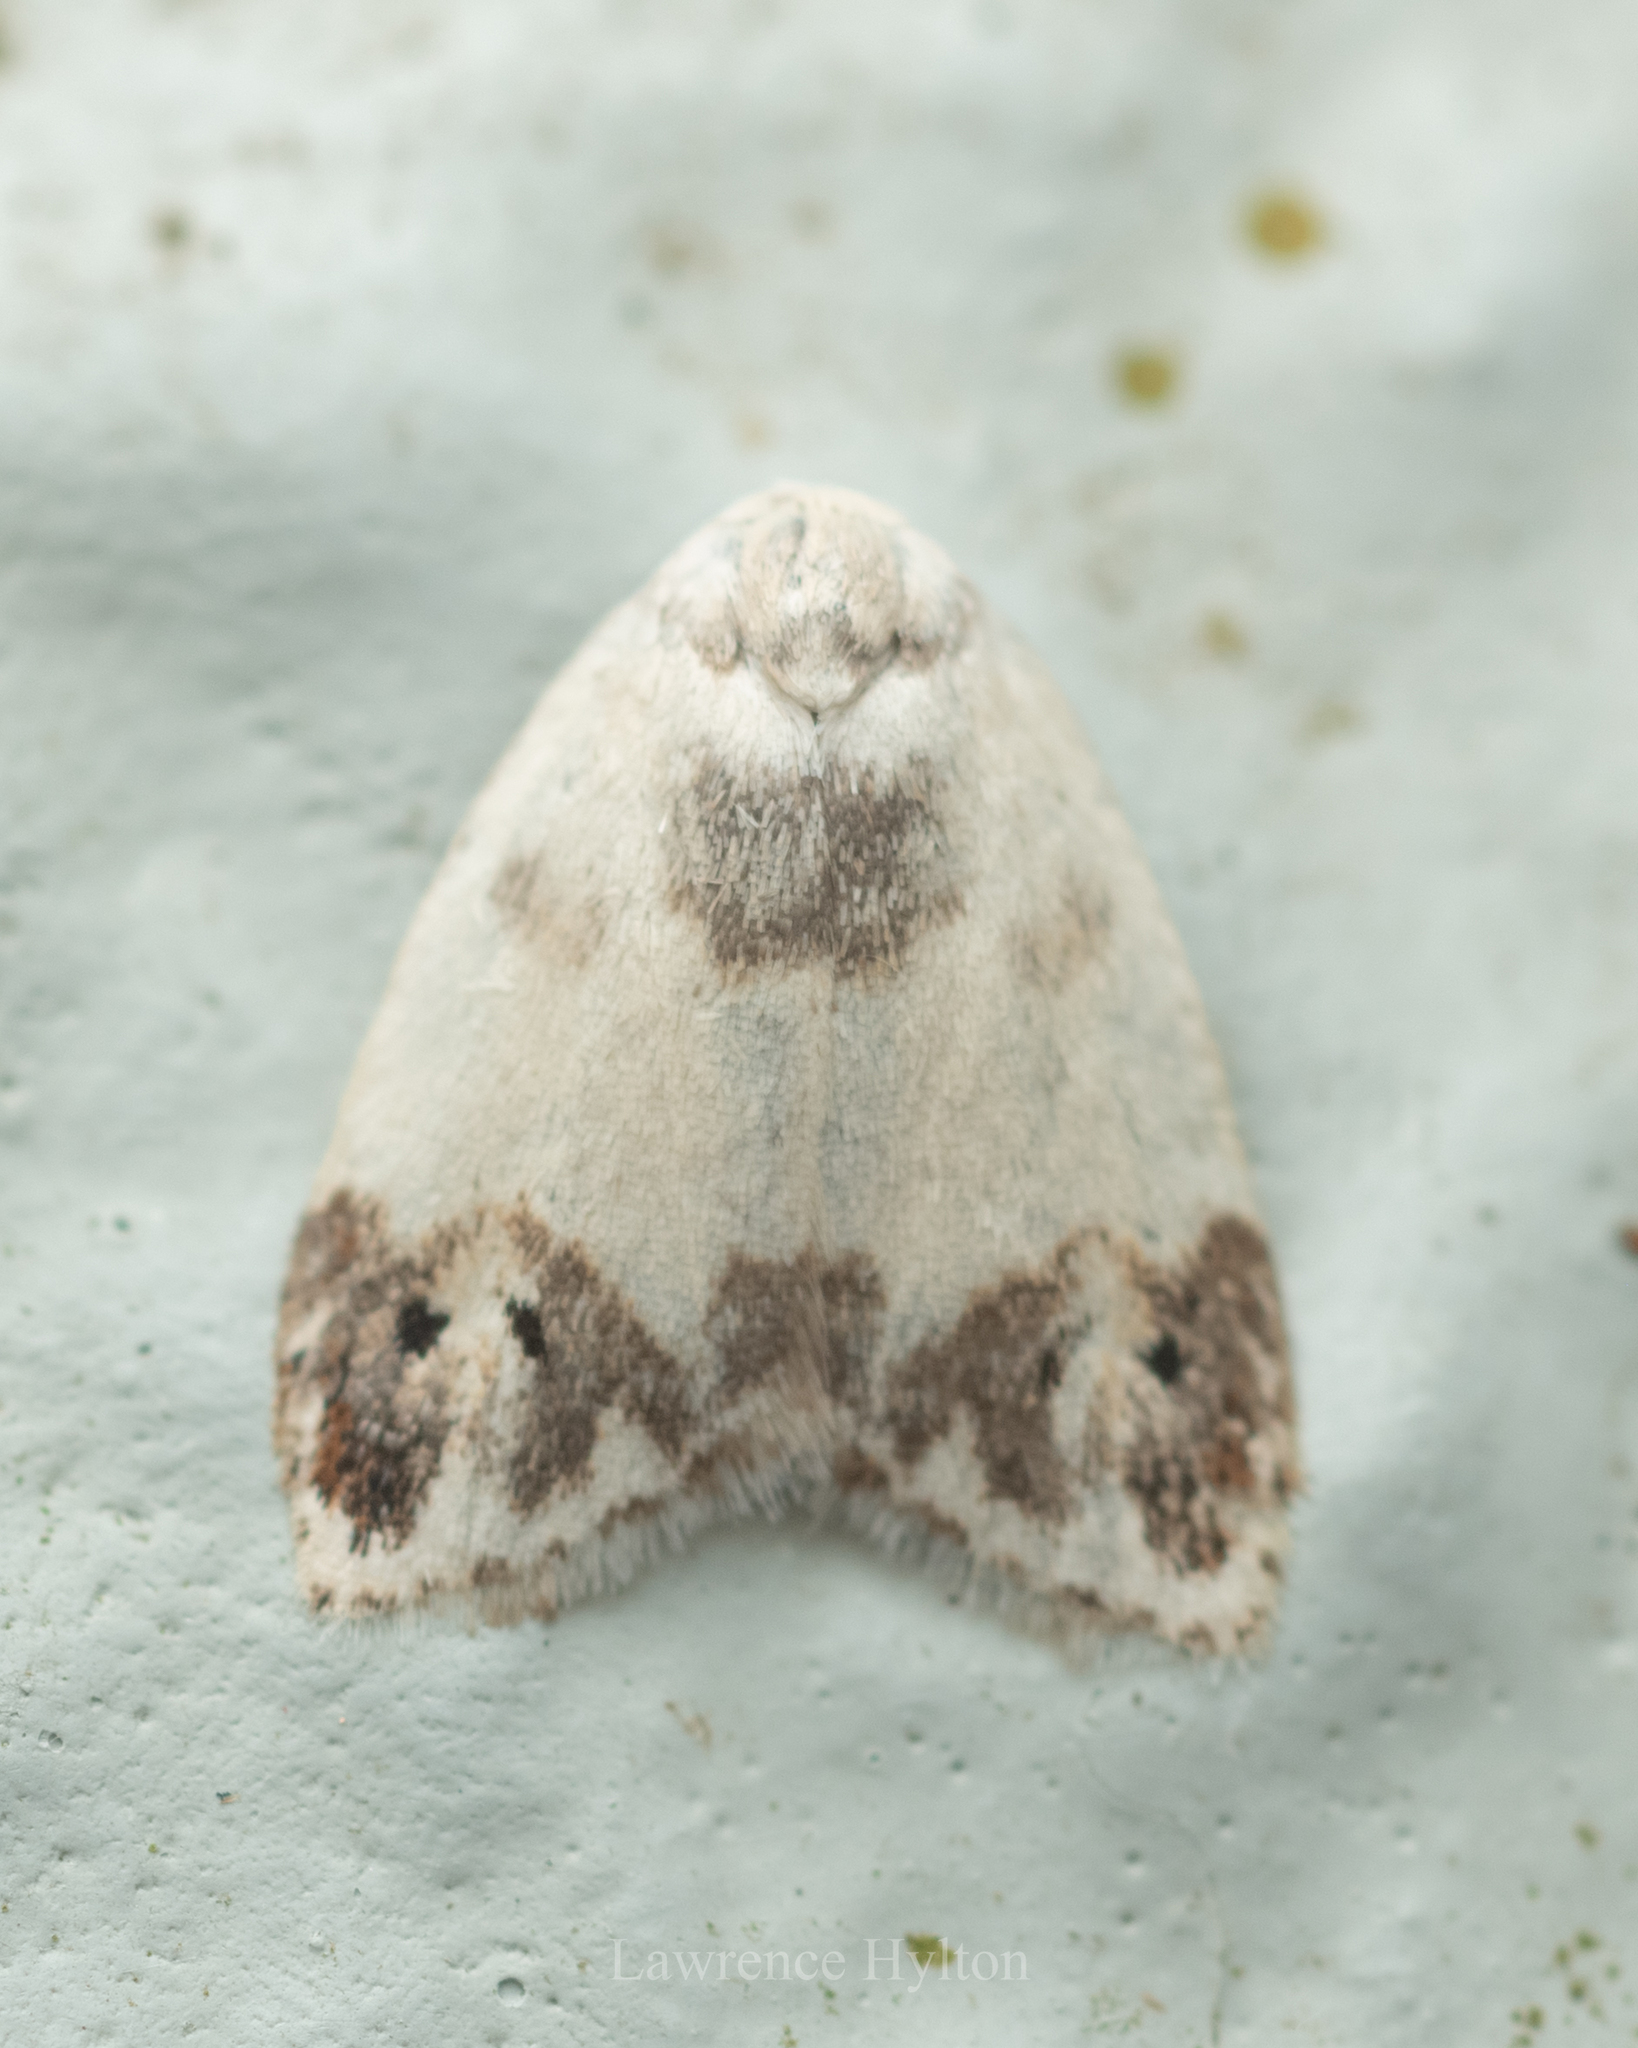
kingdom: Animalia
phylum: Arthropoda
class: Insecta
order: Lepidoptera
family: Erebidae
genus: Neoduma
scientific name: Neoduma kuangtungensis
